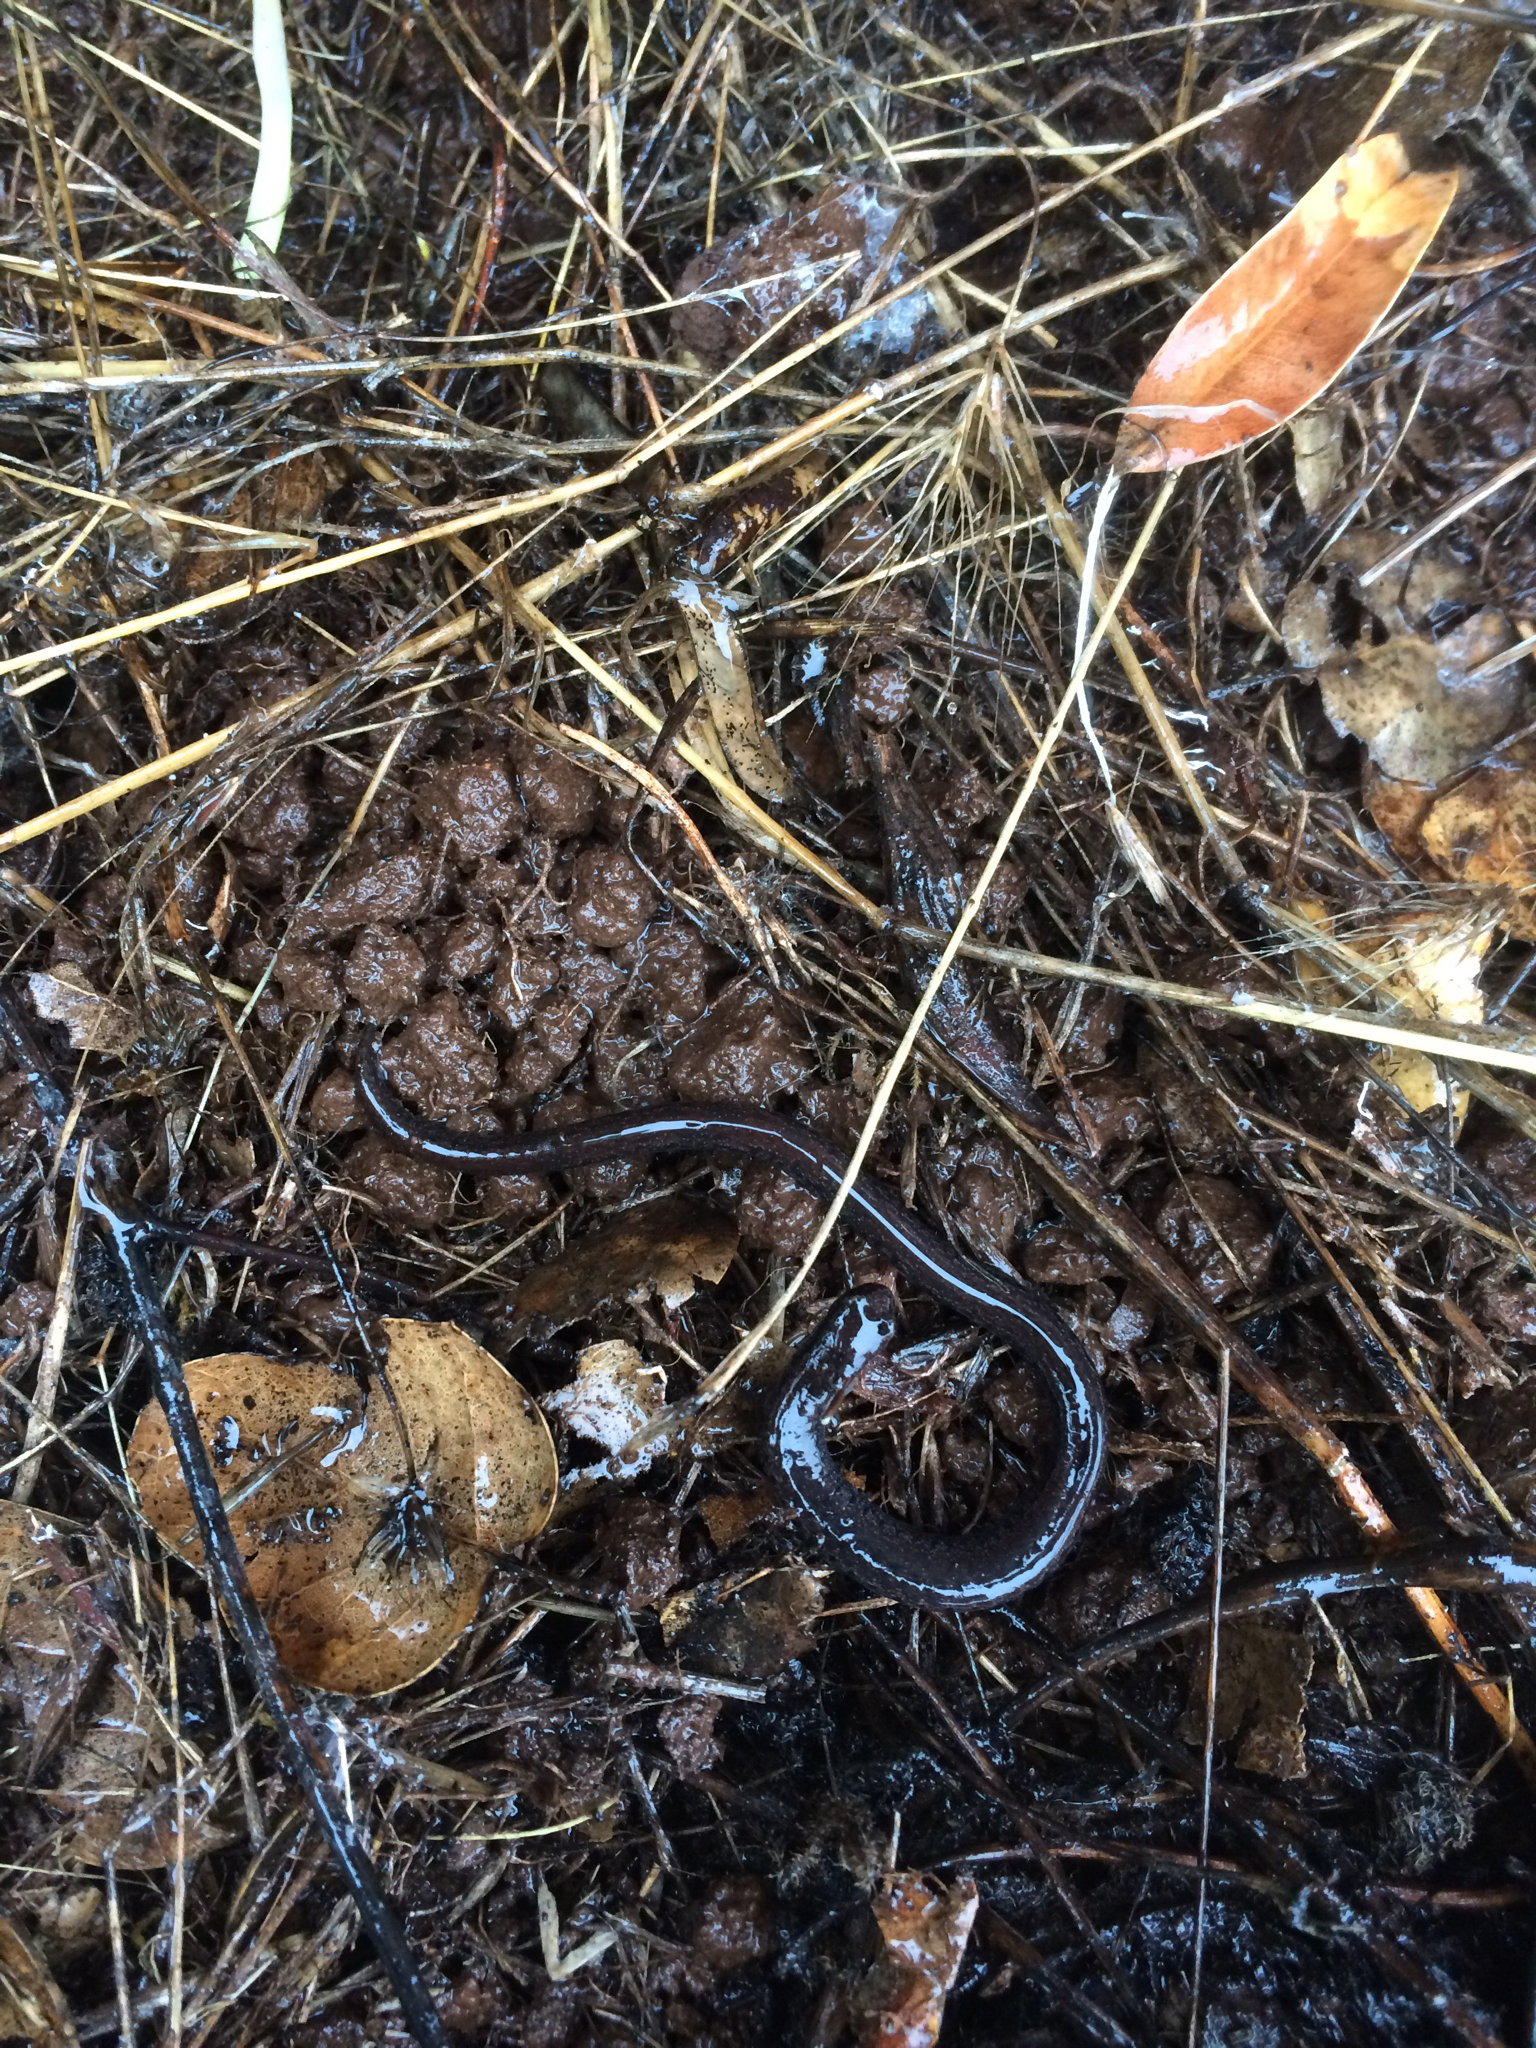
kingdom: Animalia
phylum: Chordata
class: Amphibia
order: Caudata
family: Plethodontidae
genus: Batrachoseps
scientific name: Batrachoseps attenuatus
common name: California slender salamander
